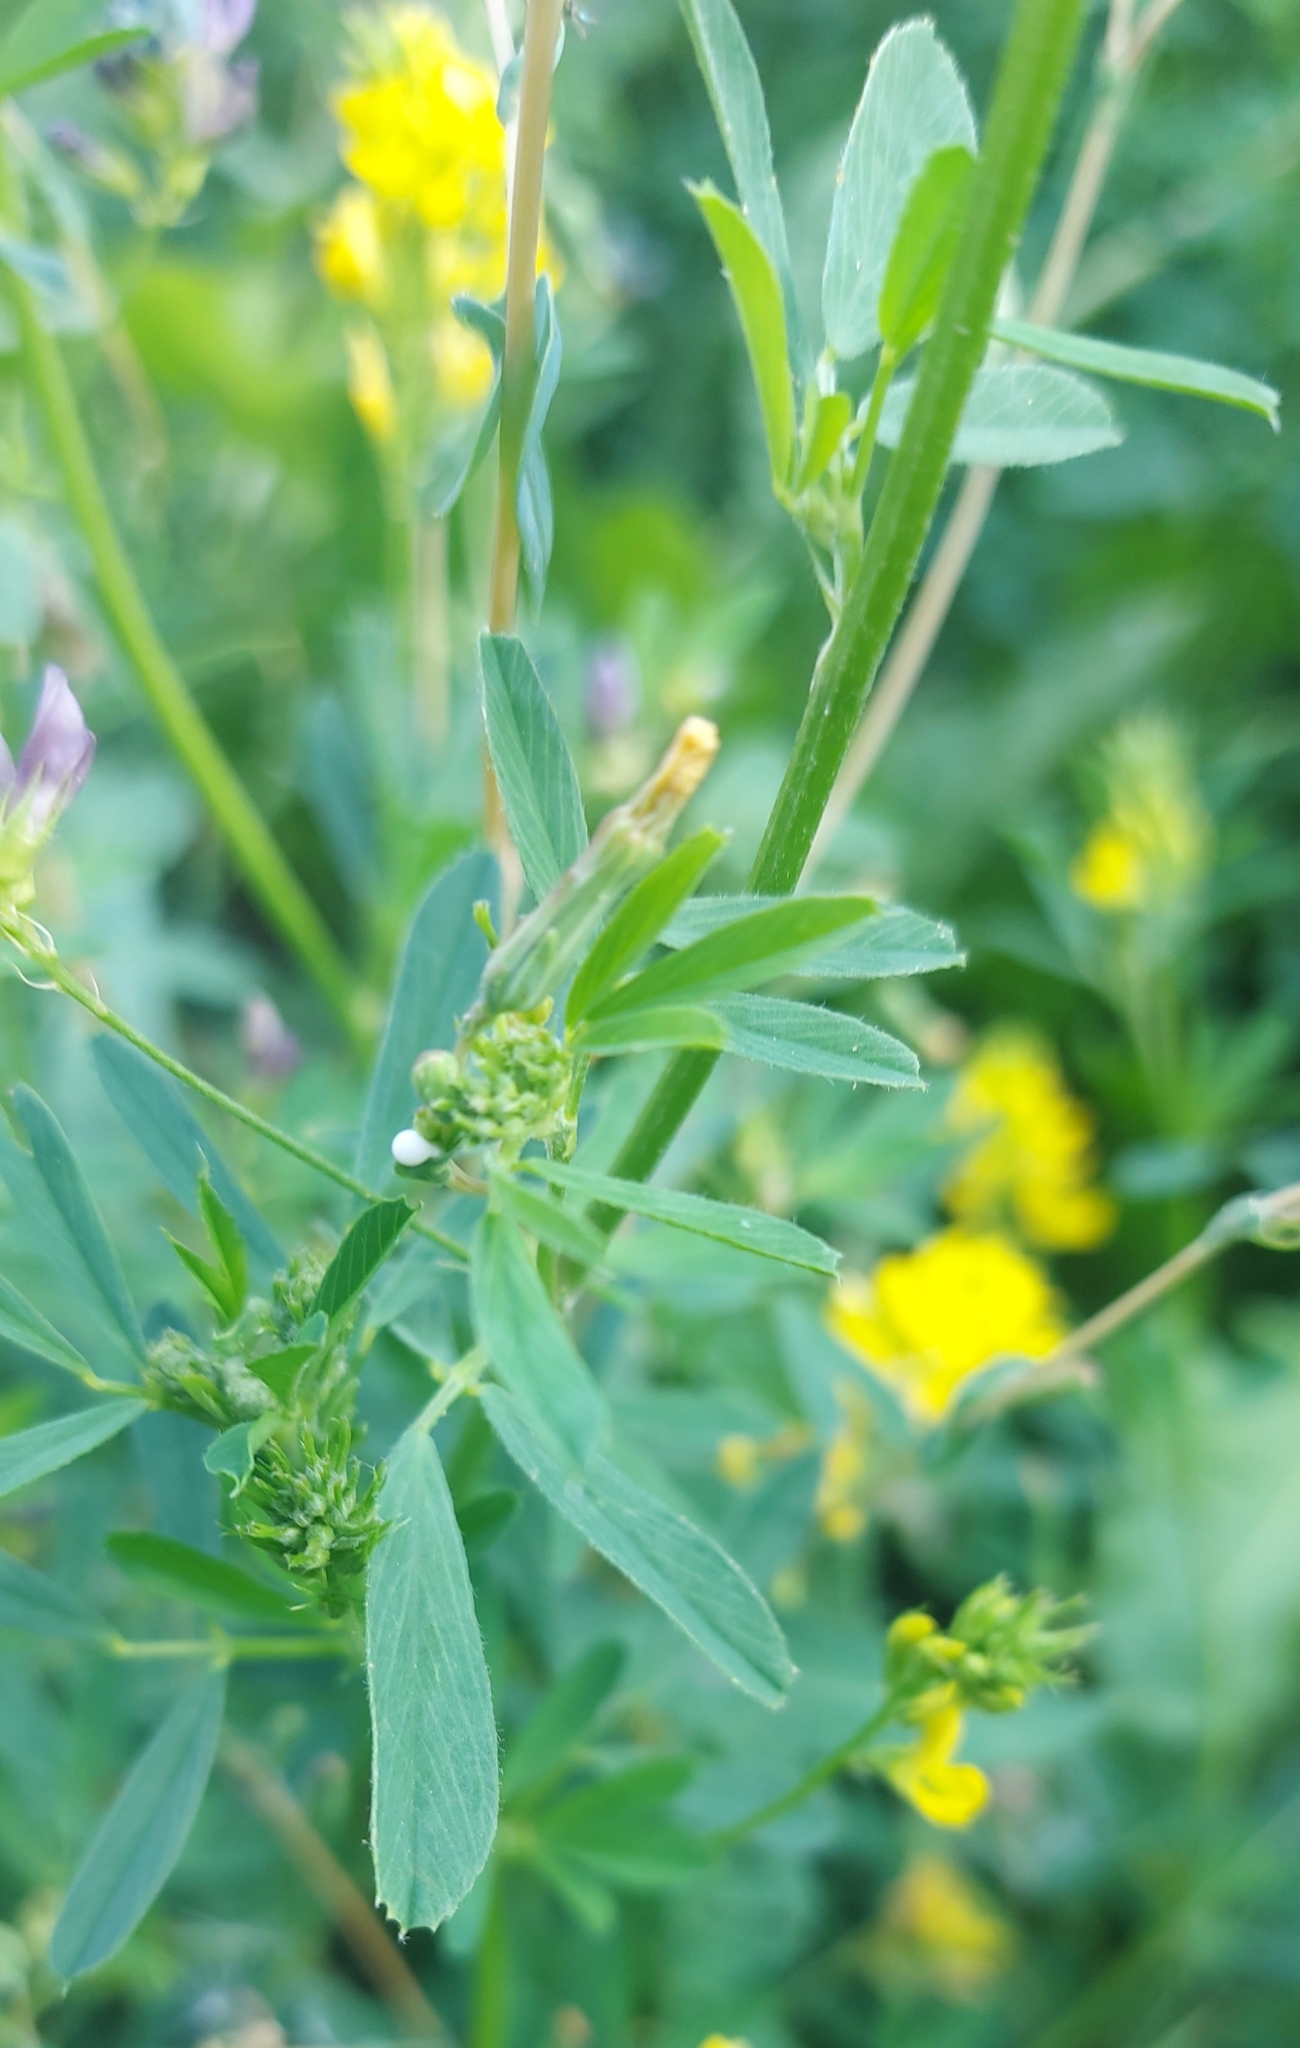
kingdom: Plantae
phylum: Tracheophyta
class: Magnoliopsida
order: Fabales
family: Fabaceae
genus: Medicago
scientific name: Medicago varia
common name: Sand lucerne
